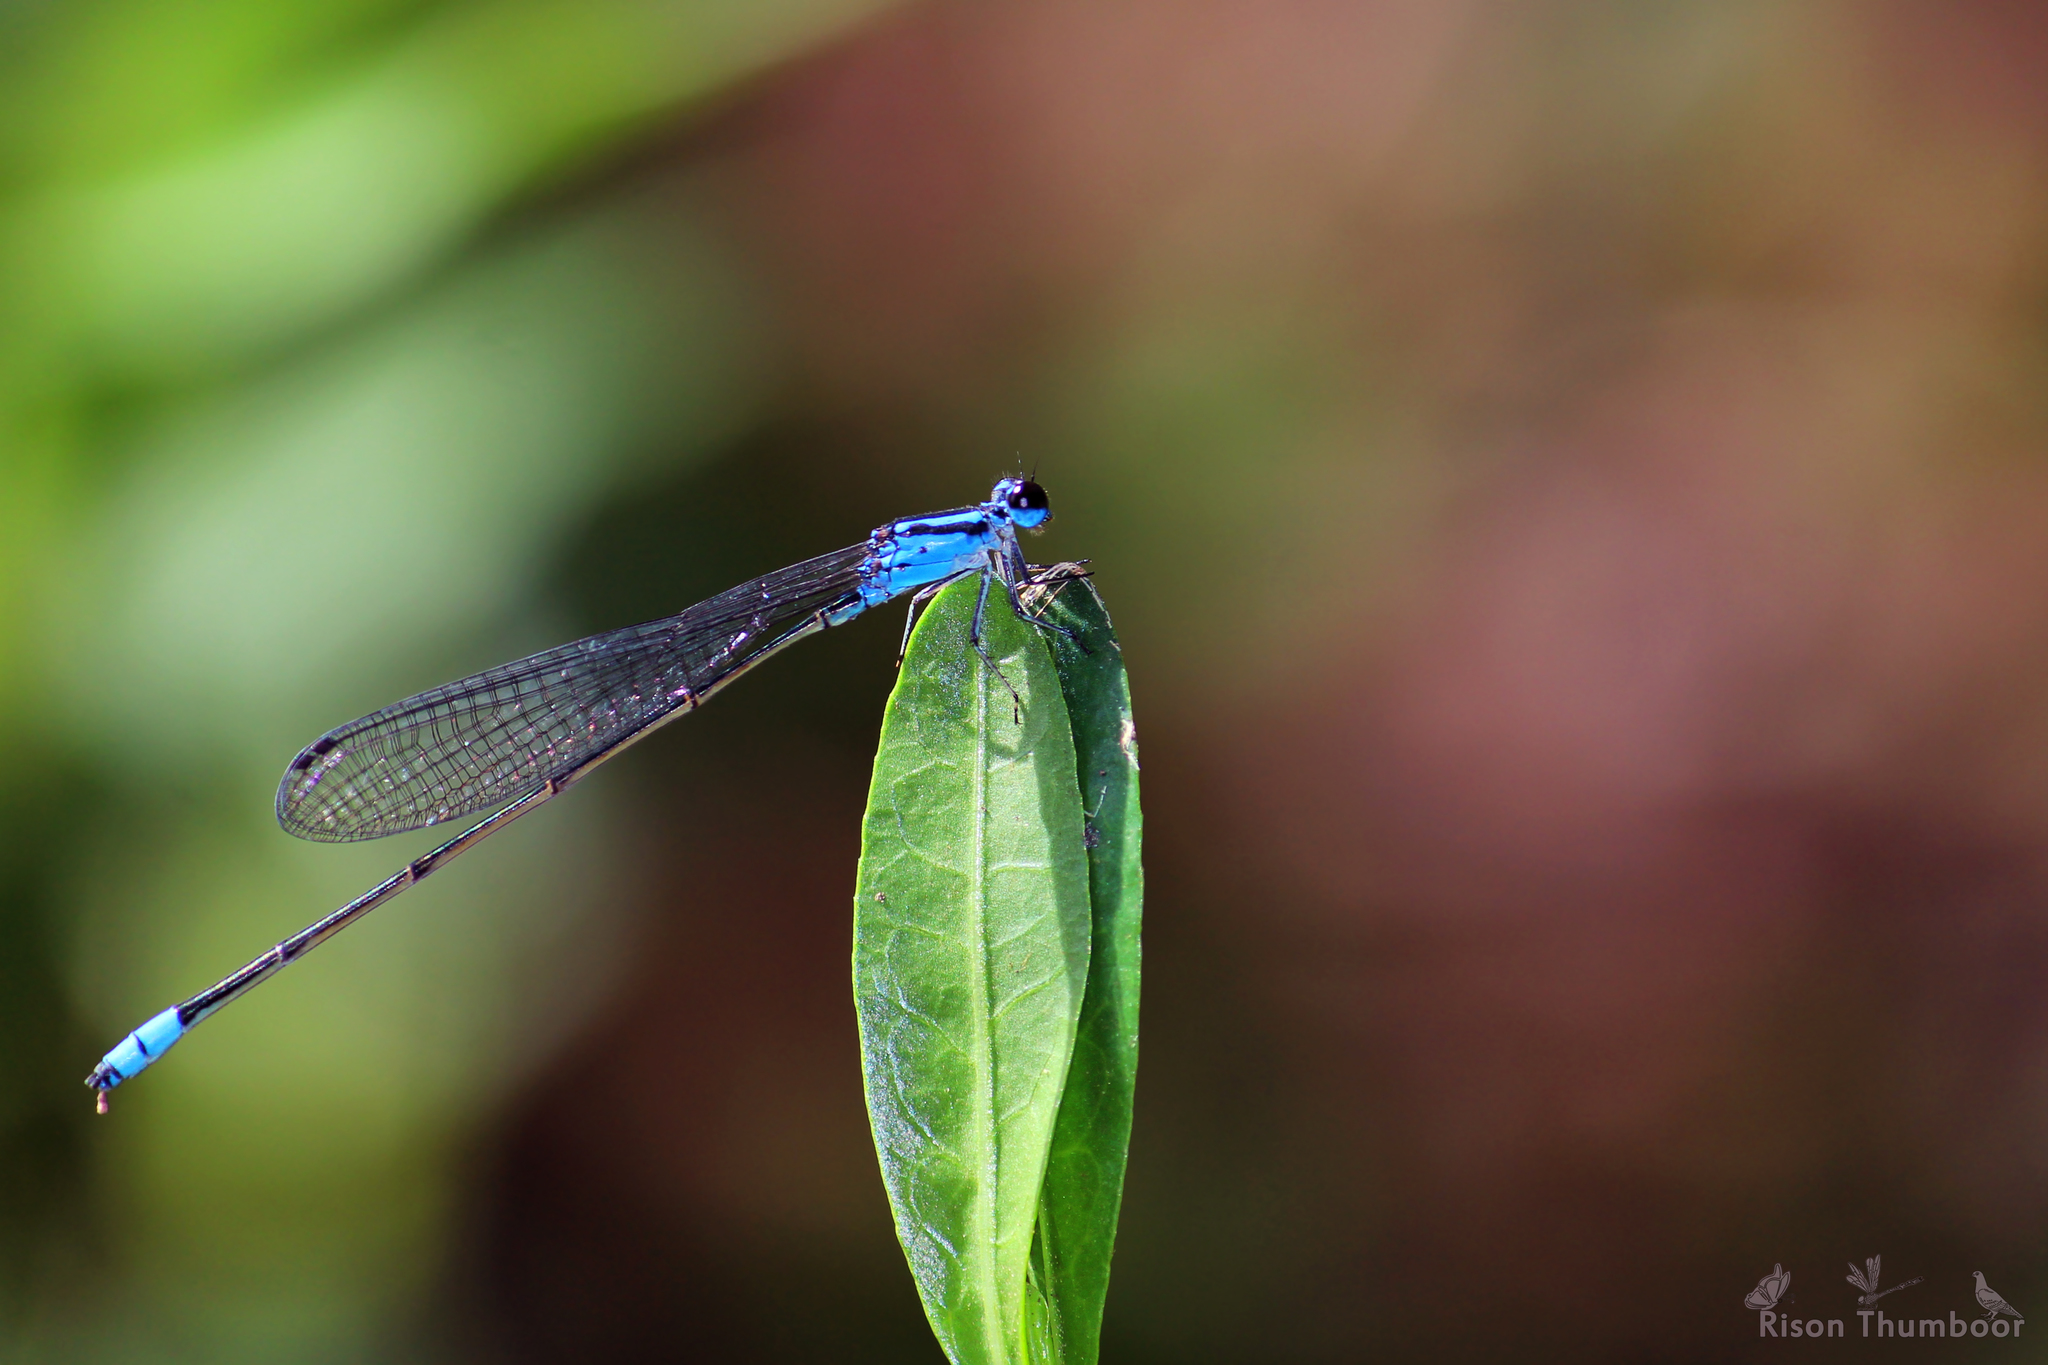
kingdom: Animalia
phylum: Arthropoda
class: Insecta
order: Odonata
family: Coenagrionidae
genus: Archibasis
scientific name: Archibasis oscillans
